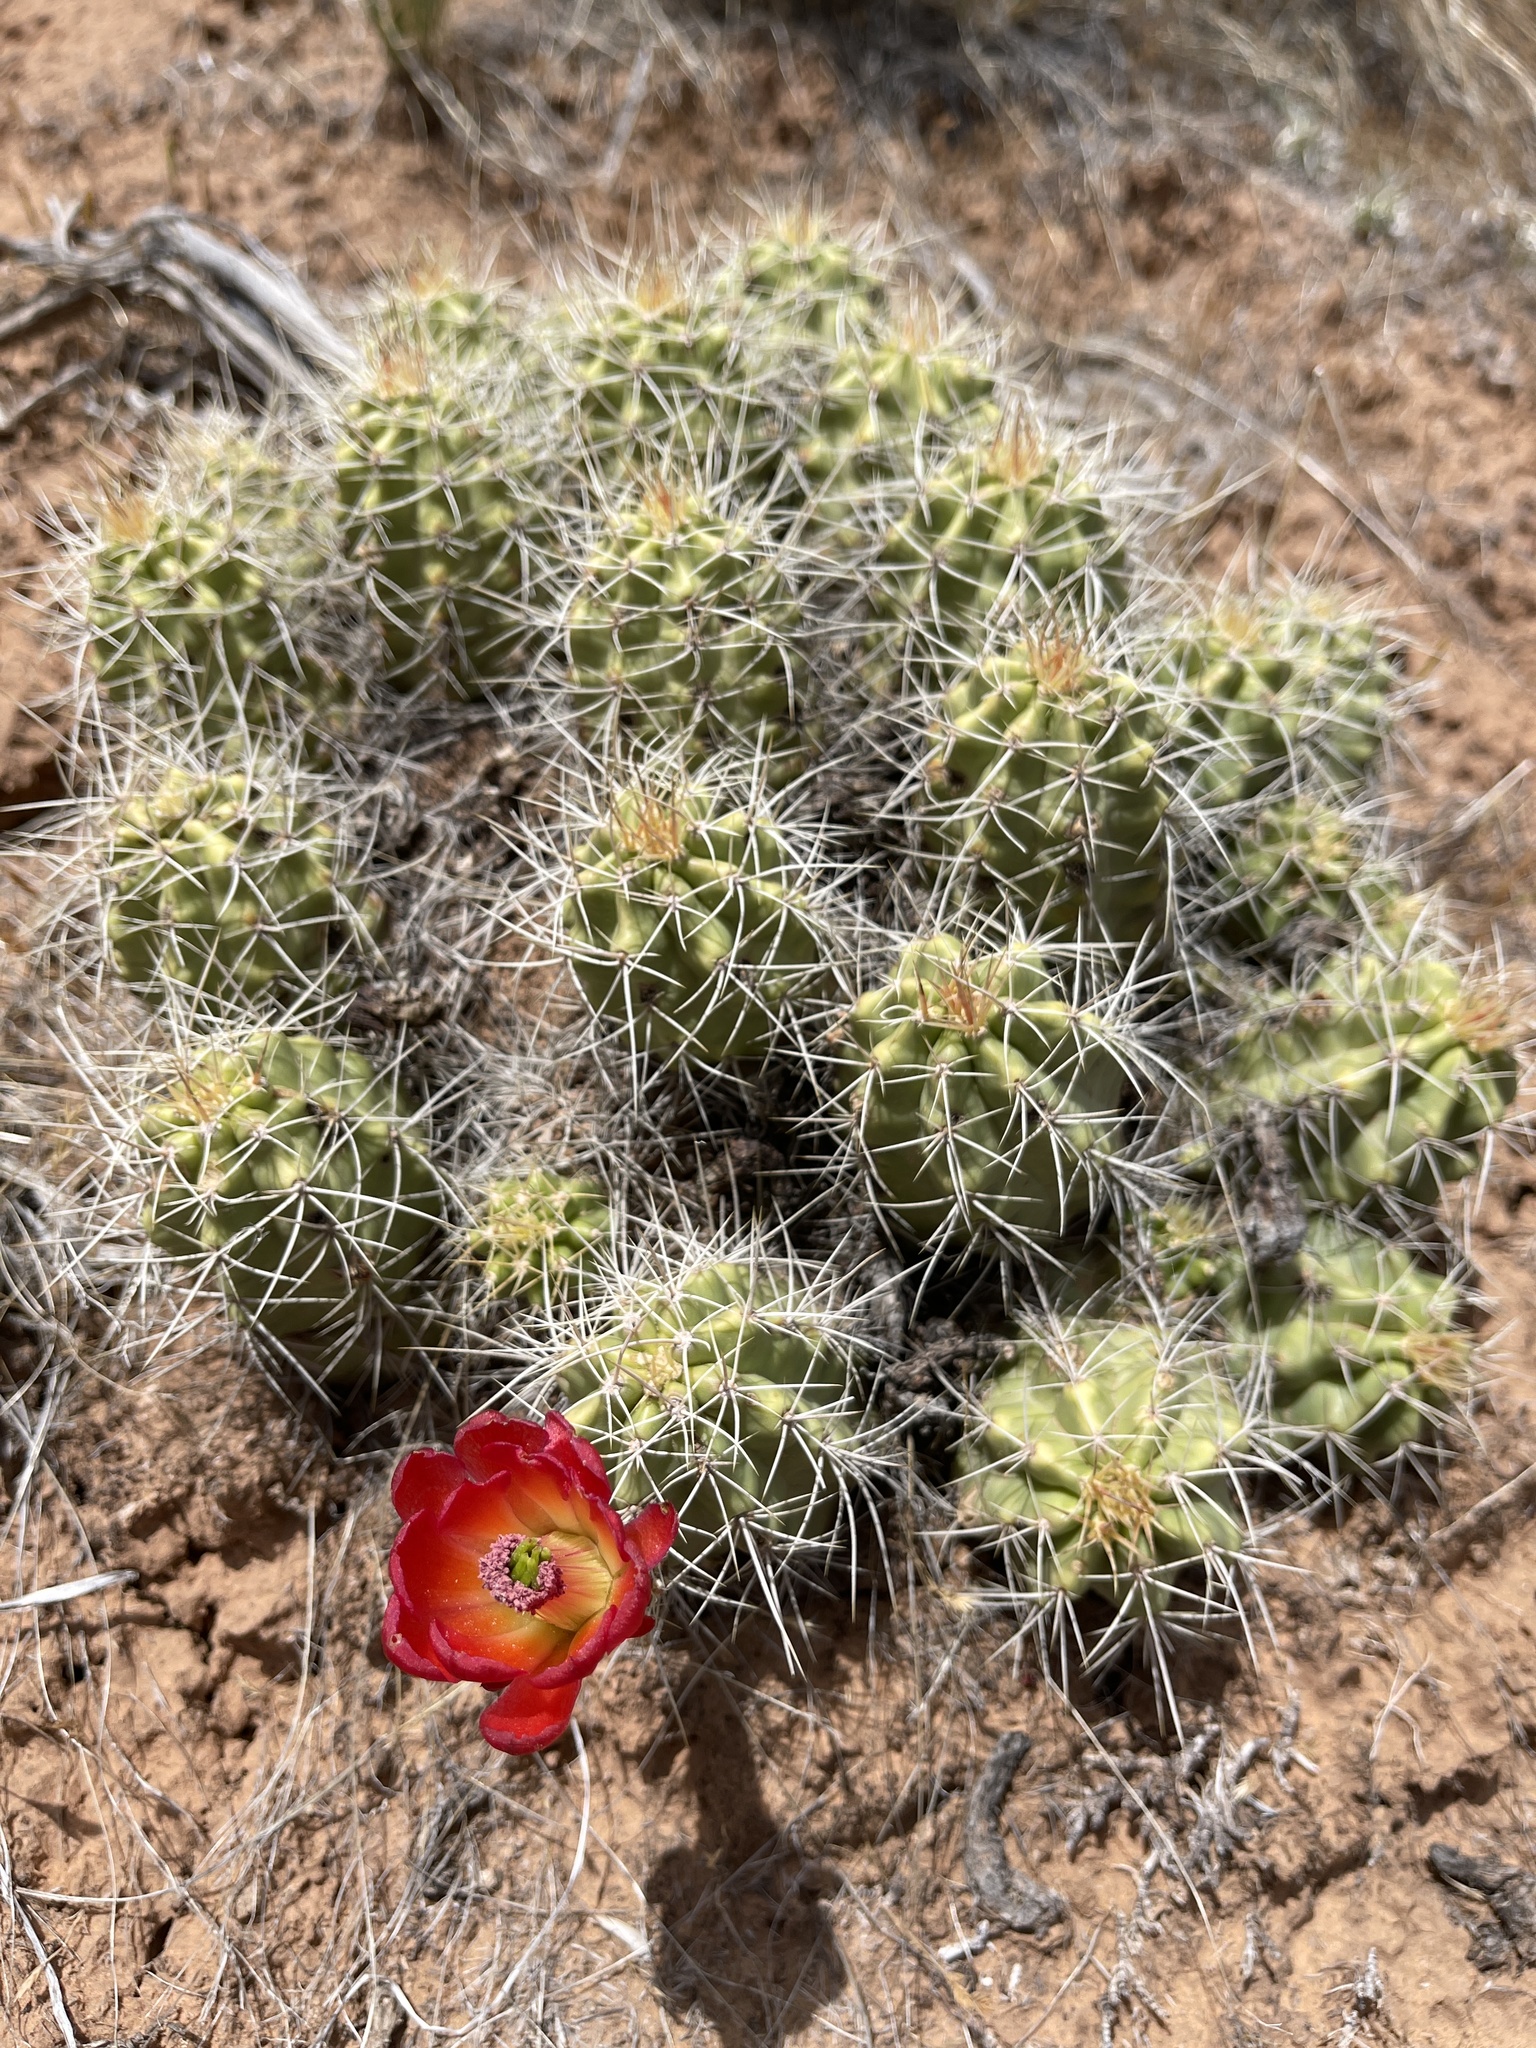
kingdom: Plantae
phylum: Tracheophyta
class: Magnoliopsida
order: Caryophyllales
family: Cactaceae
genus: Echinocereus
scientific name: Echinocereus triglochidiatus
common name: Claretcup hedgehog
